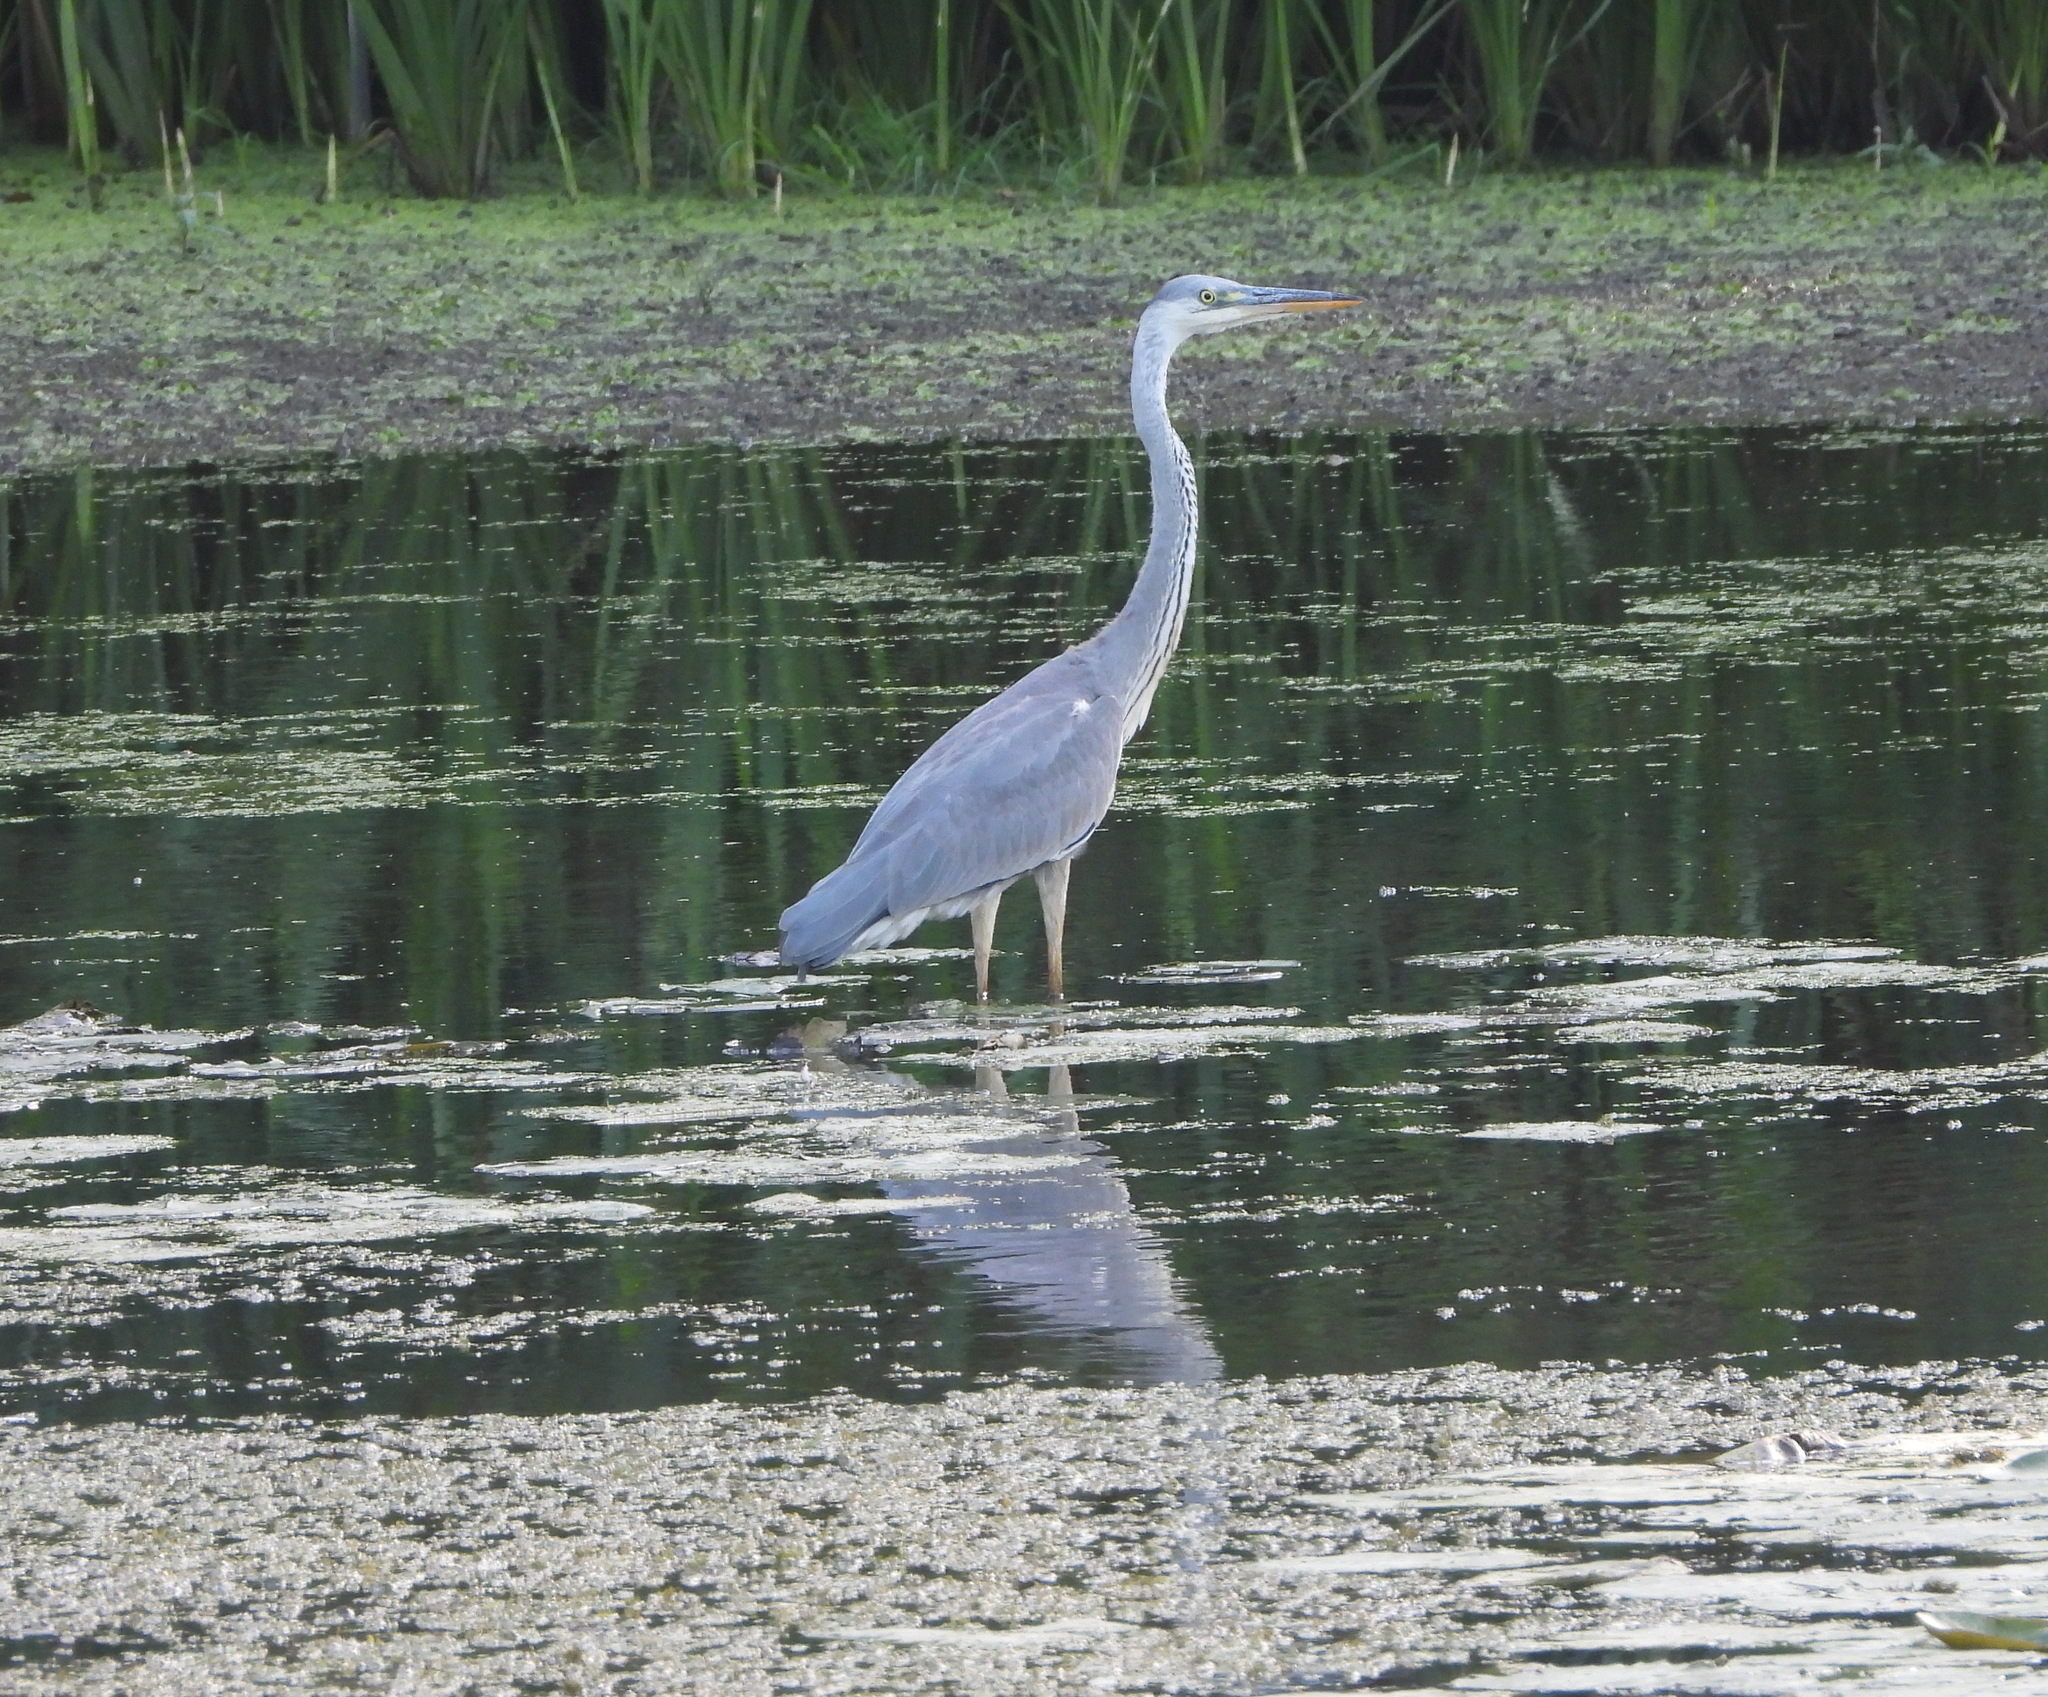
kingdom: Animalia
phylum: Chordata
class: Aves
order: Pelecaniformes
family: Ardeidae
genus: Ardea
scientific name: Ardea cinerea
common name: Grey heron
